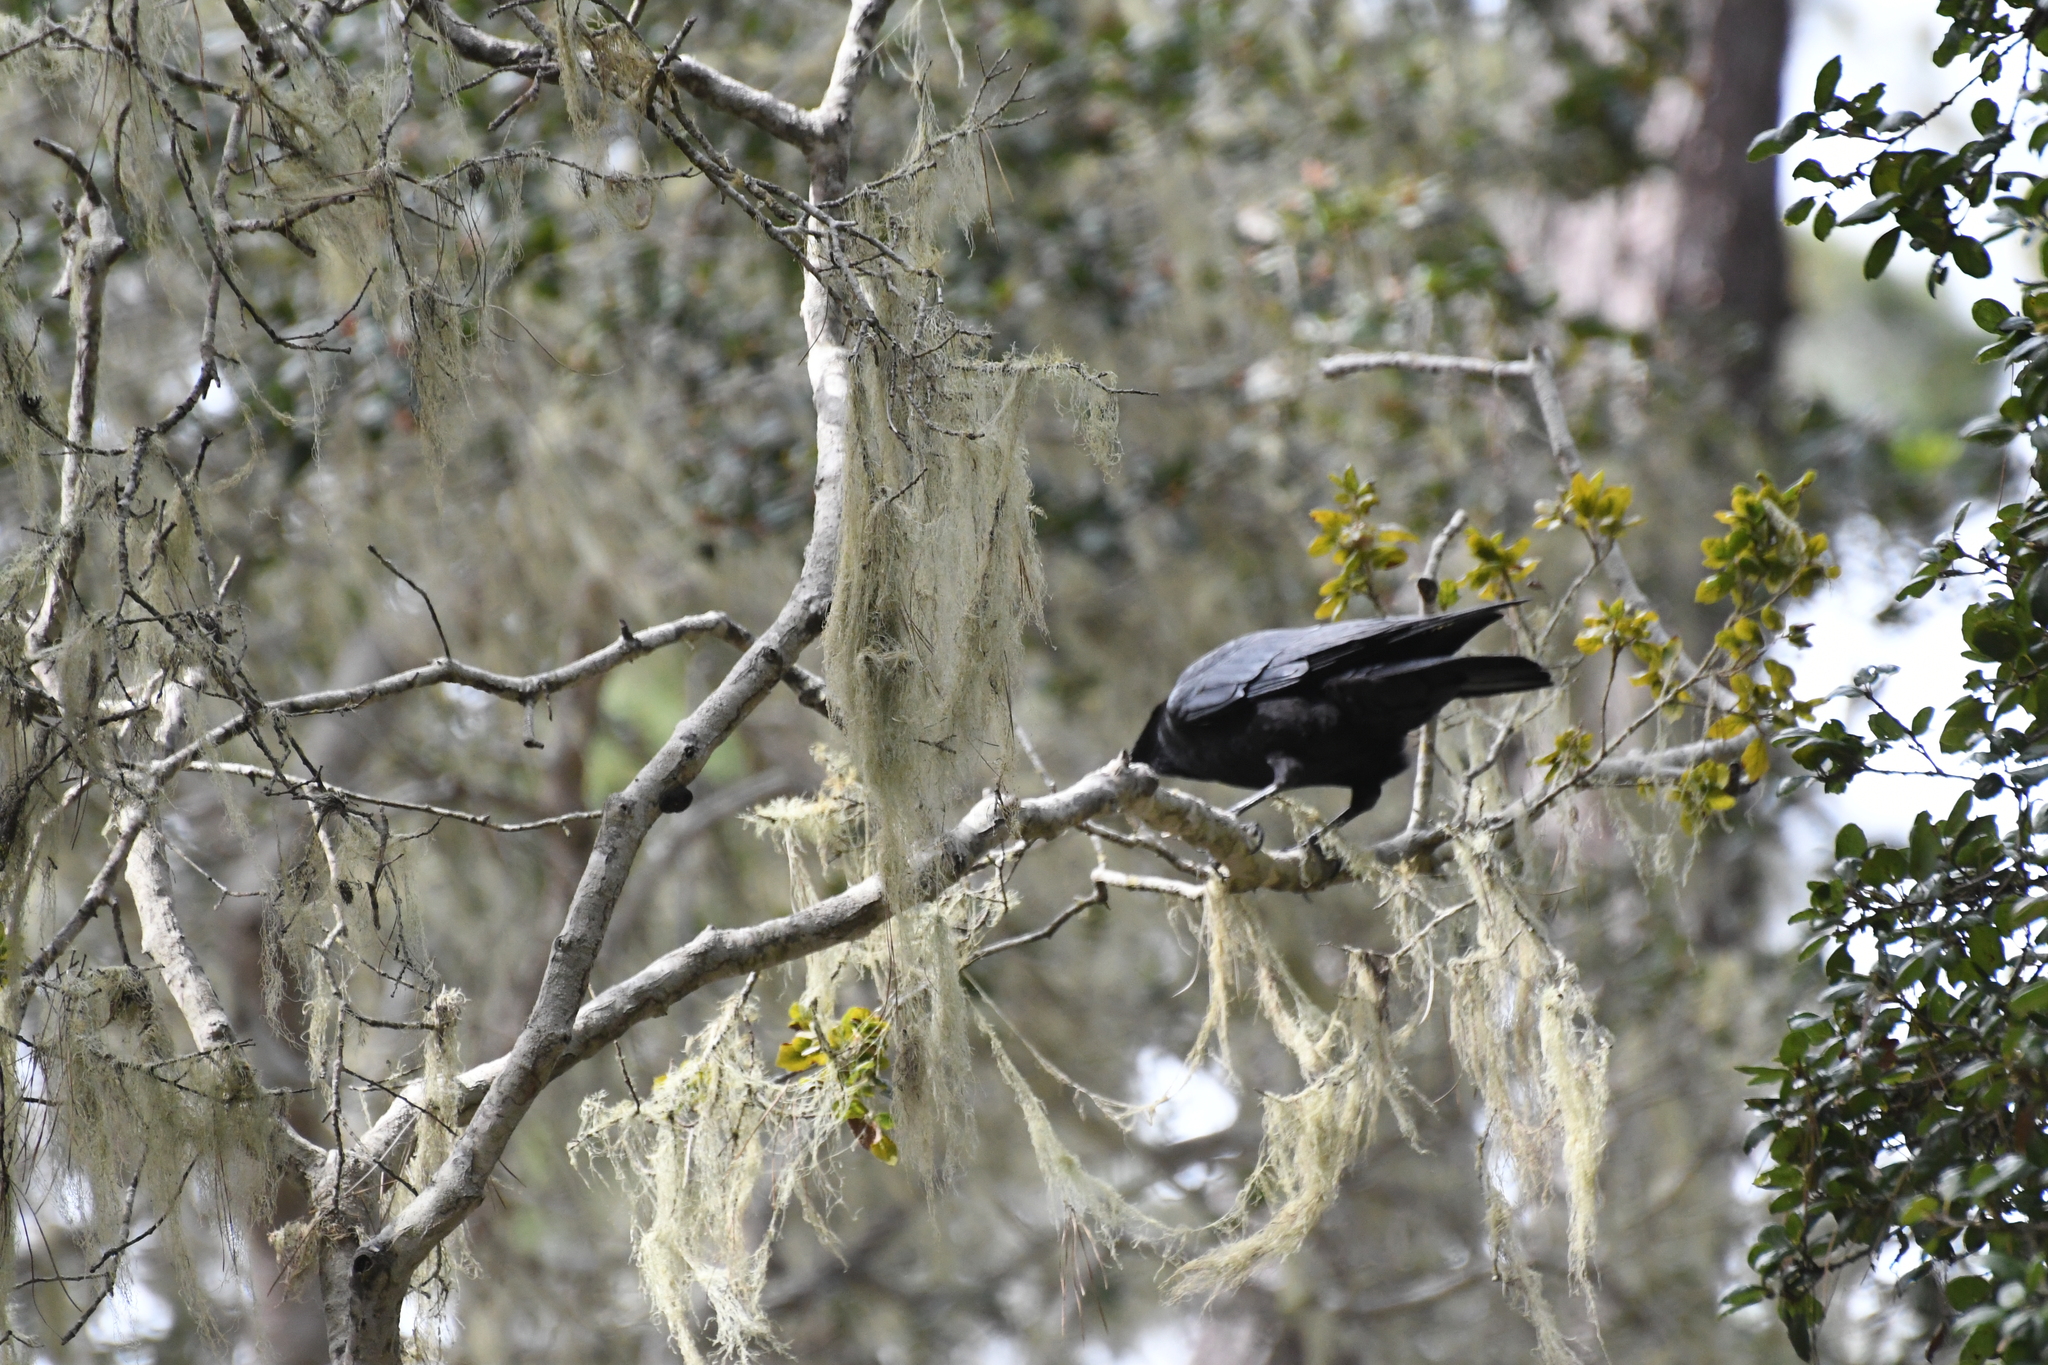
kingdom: Animalia
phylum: Chordata
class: Aves
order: Passeriformes
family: Corvidae
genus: Corvus
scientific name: Corvus brachyrhynchos
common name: American crow
